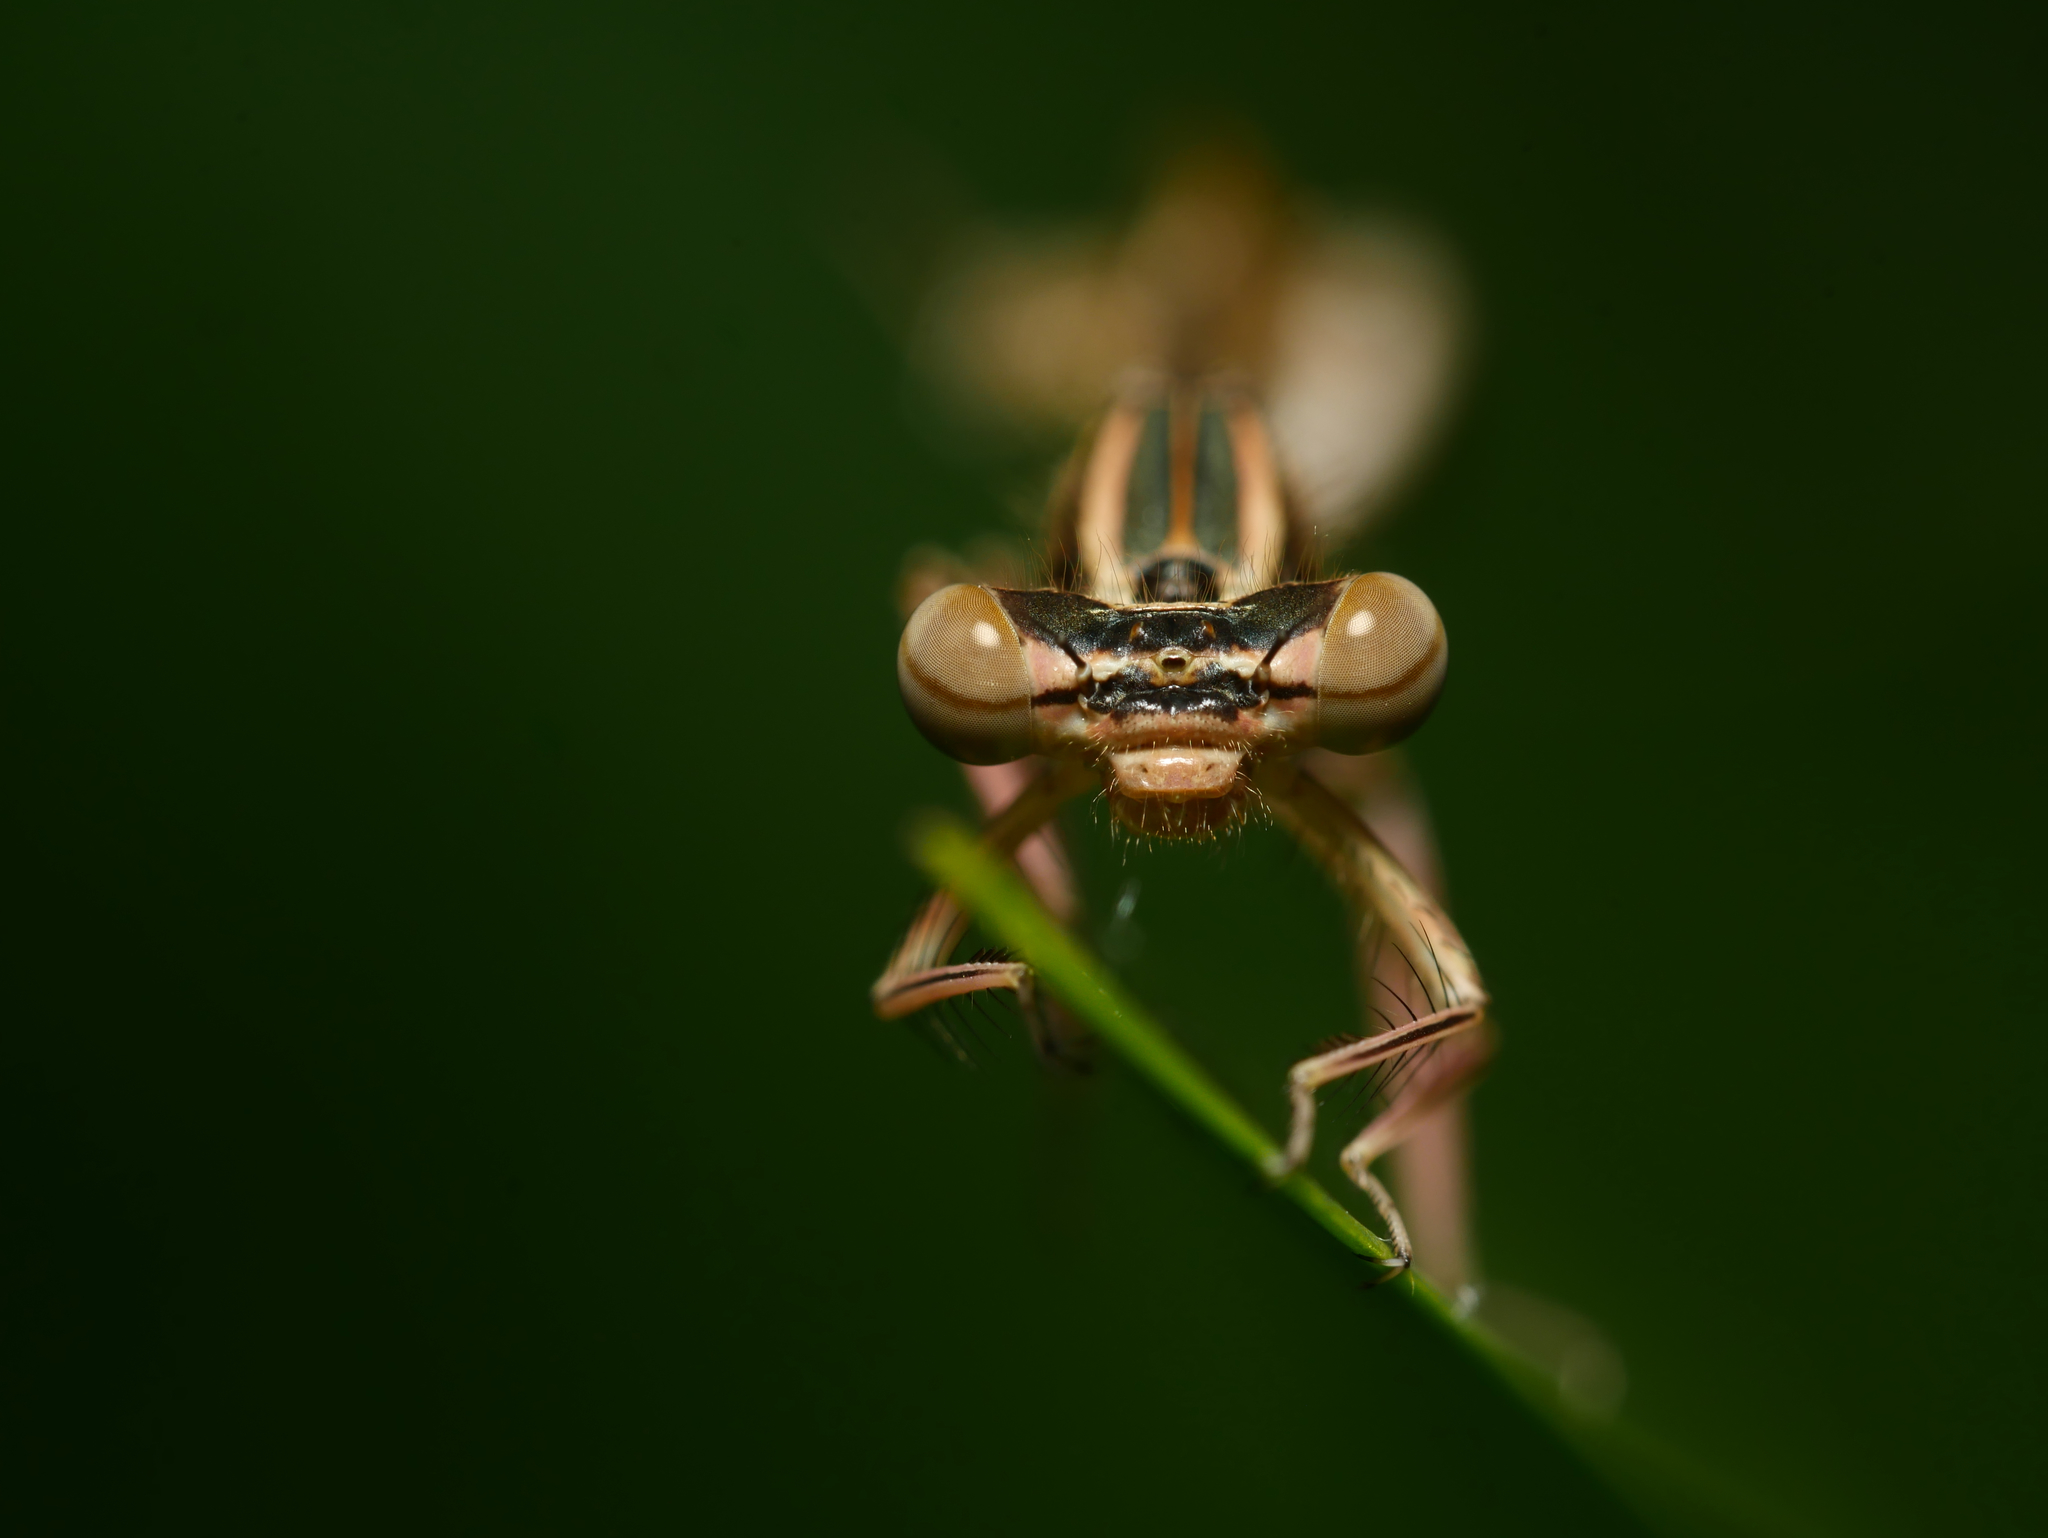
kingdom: Animalia
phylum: Arthropoda
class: Insecta
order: Odonata
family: Platycnemididae
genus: Platycnemis
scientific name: Platycnemis pennipes
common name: White-legged damselfly
